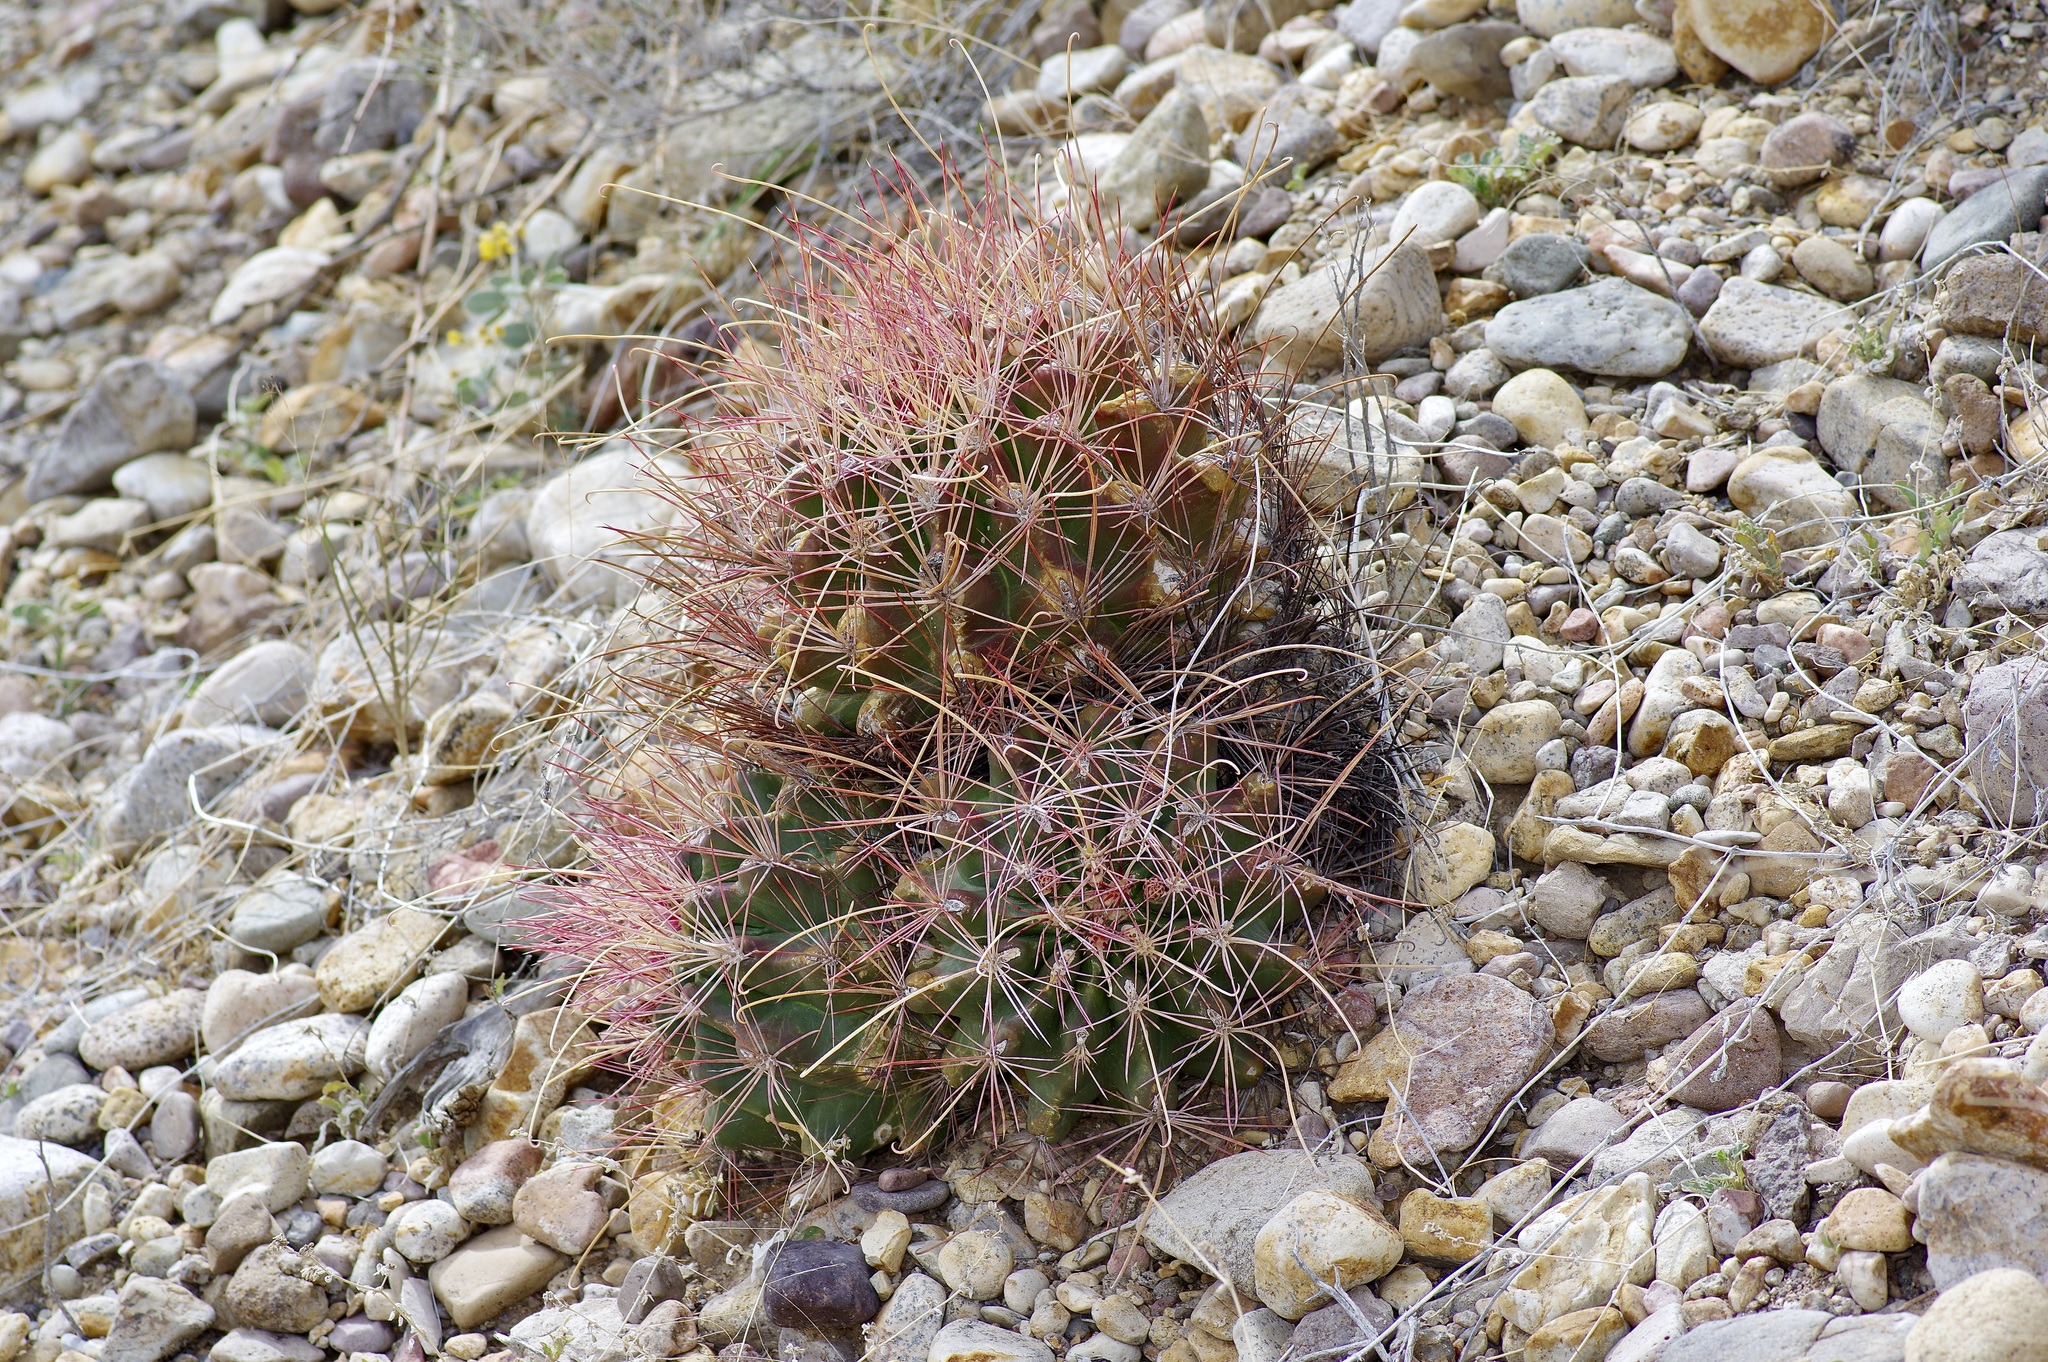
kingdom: Plantae
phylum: Tracheophyta
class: Magnoliopsida
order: Caryophyllales
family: Cactaceae
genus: Bisnaga
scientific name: Bisnaga hamatacantha
